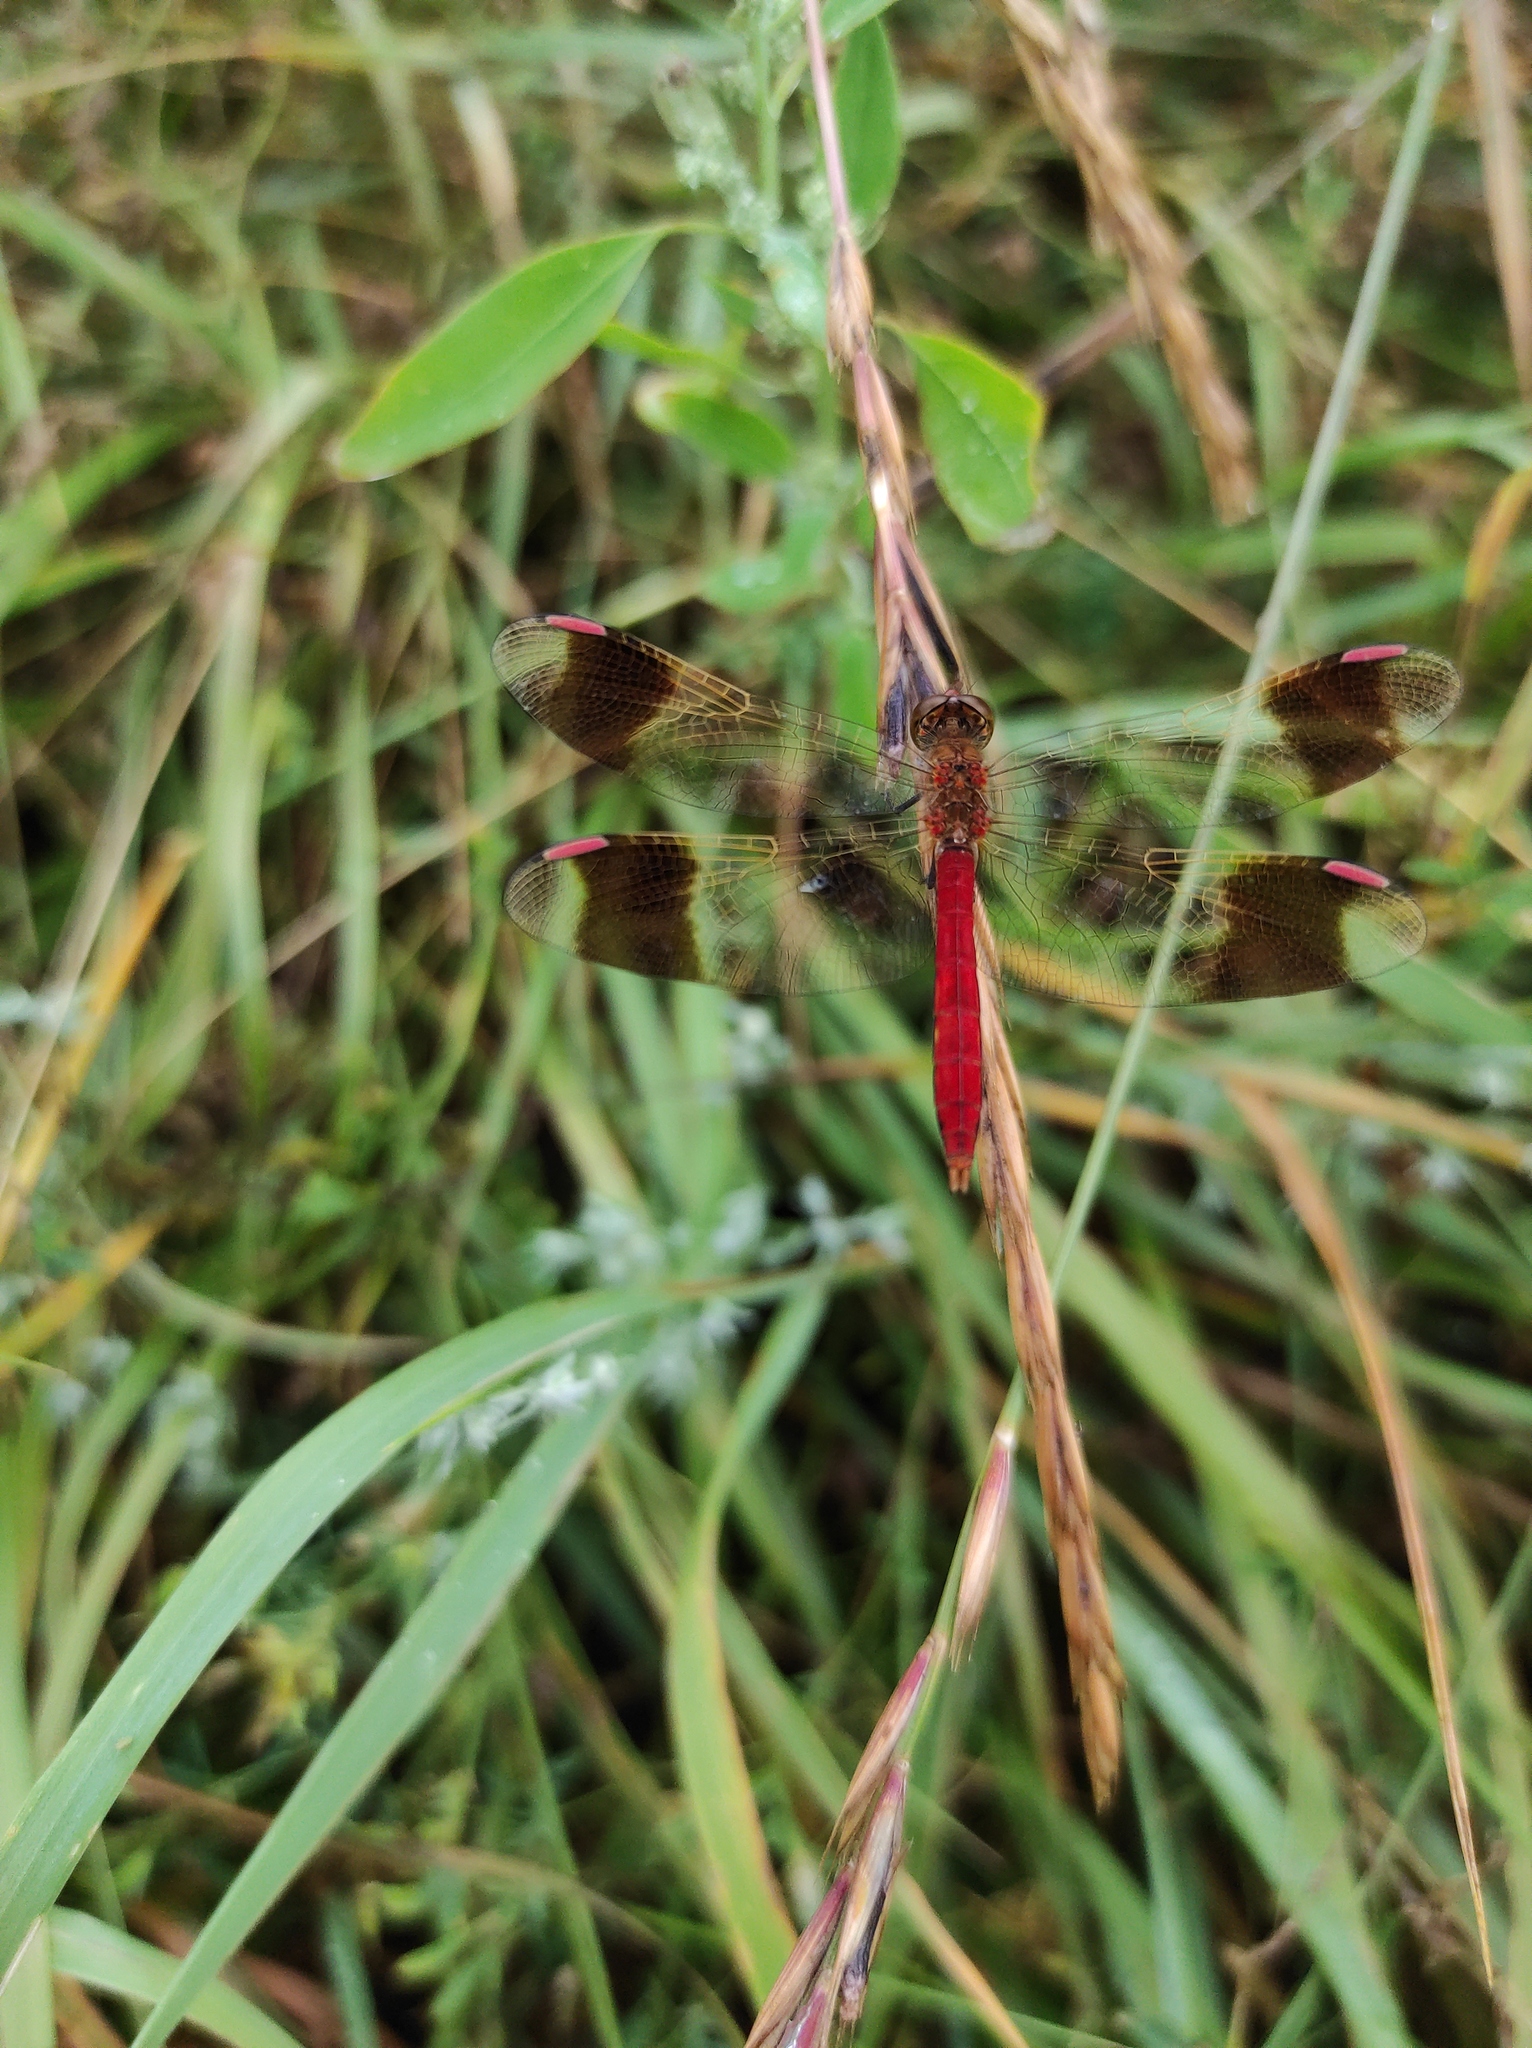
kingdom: Animalia
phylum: Arthropoda
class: Insecta
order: Odonata
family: Libellulidae
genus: Sympetrum
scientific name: Sympetrum pedemontanum
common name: Banded darter
